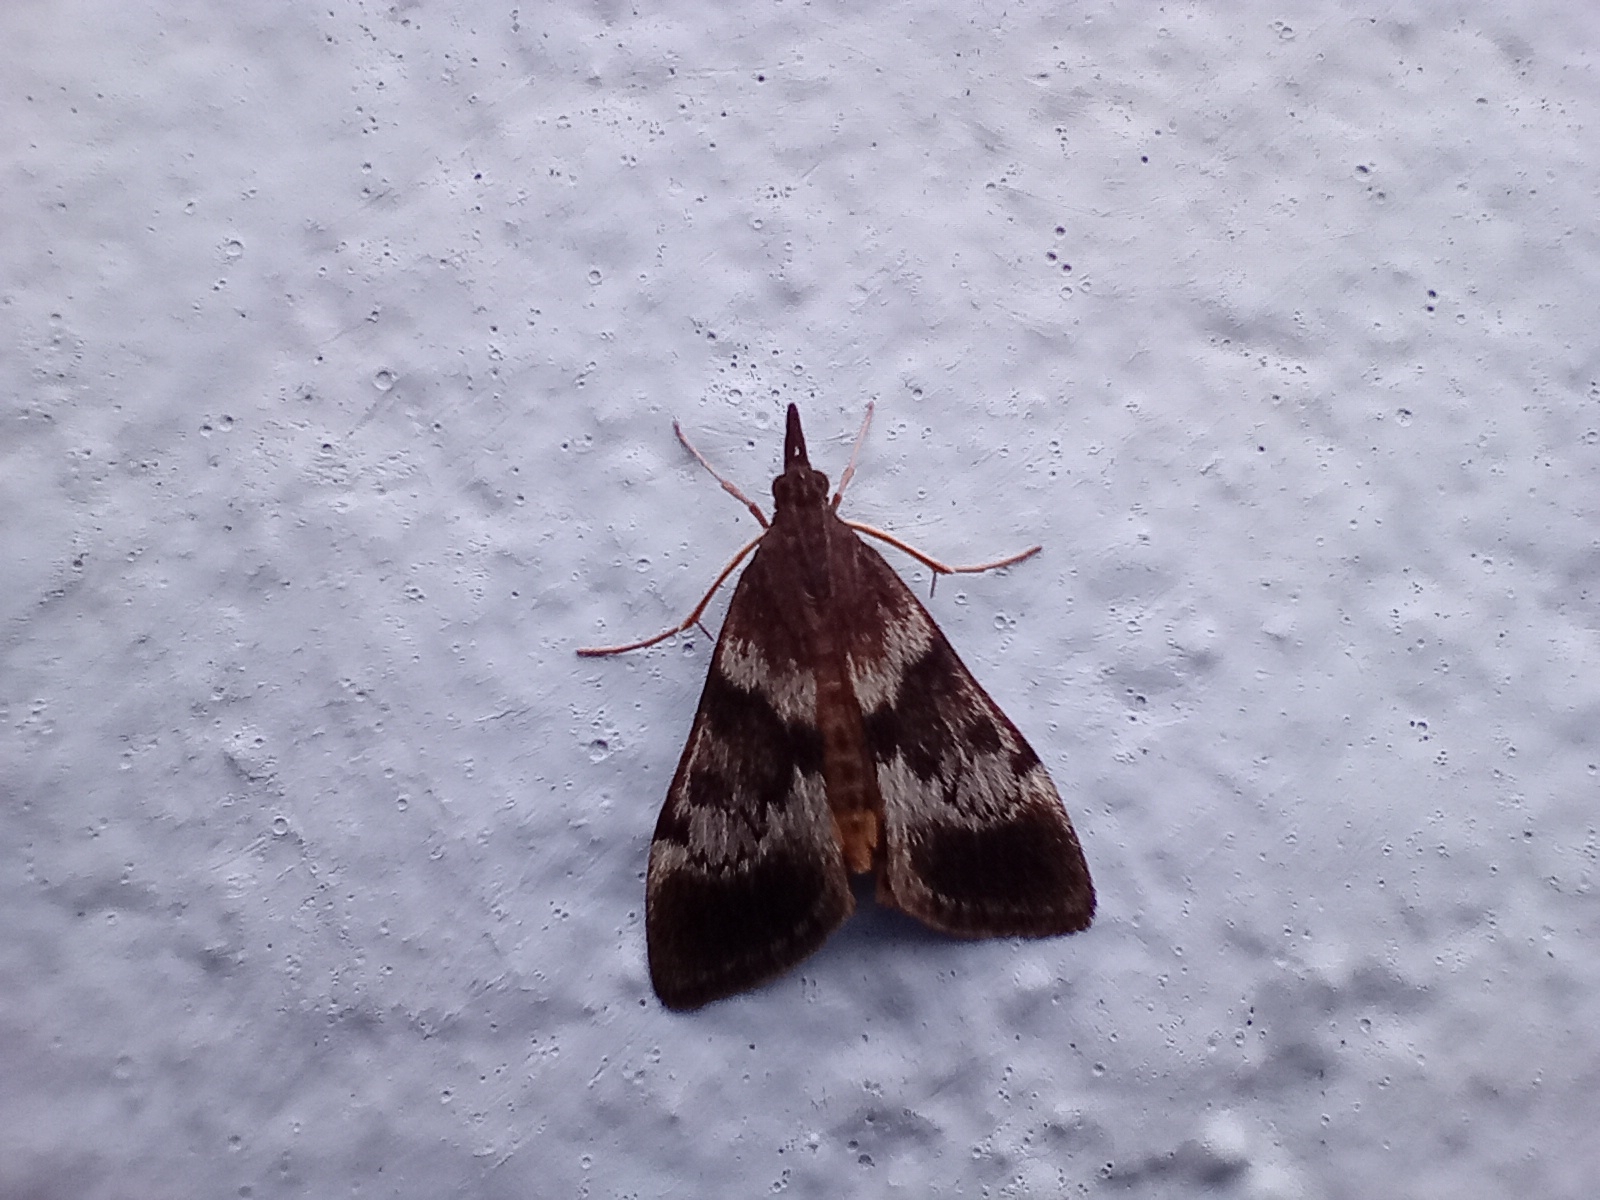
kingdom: Animalia
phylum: Arthropoda
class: Insecta
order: Lepidoptera
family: Crambidae
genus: Uresiphita
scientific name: Uresiphita
